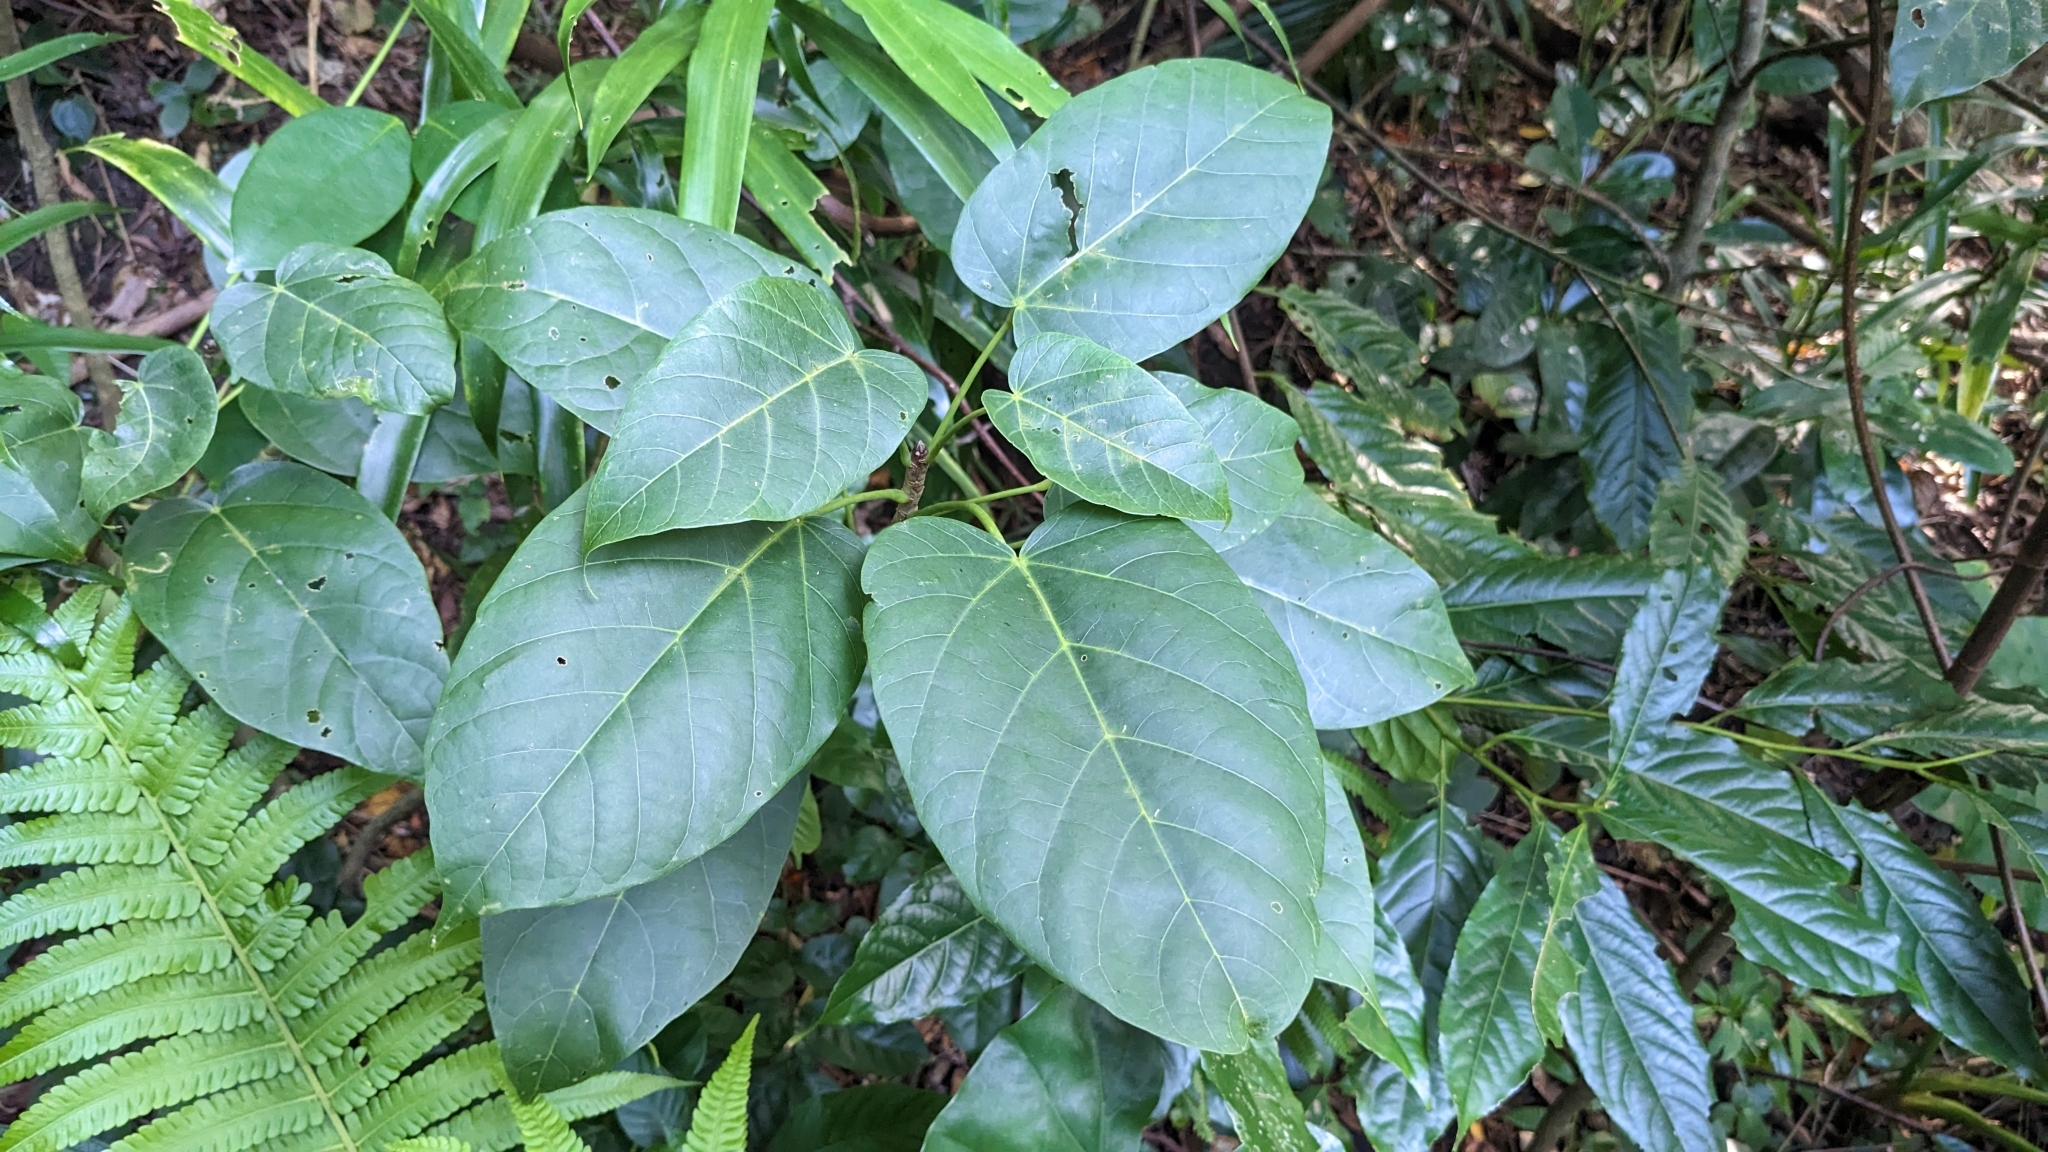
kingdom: Plantae
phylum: Tracheophyta
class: Magnoliopsida
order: Malvales
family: Malvaceae
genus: Sterculia
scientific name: Sterculia ceramica
